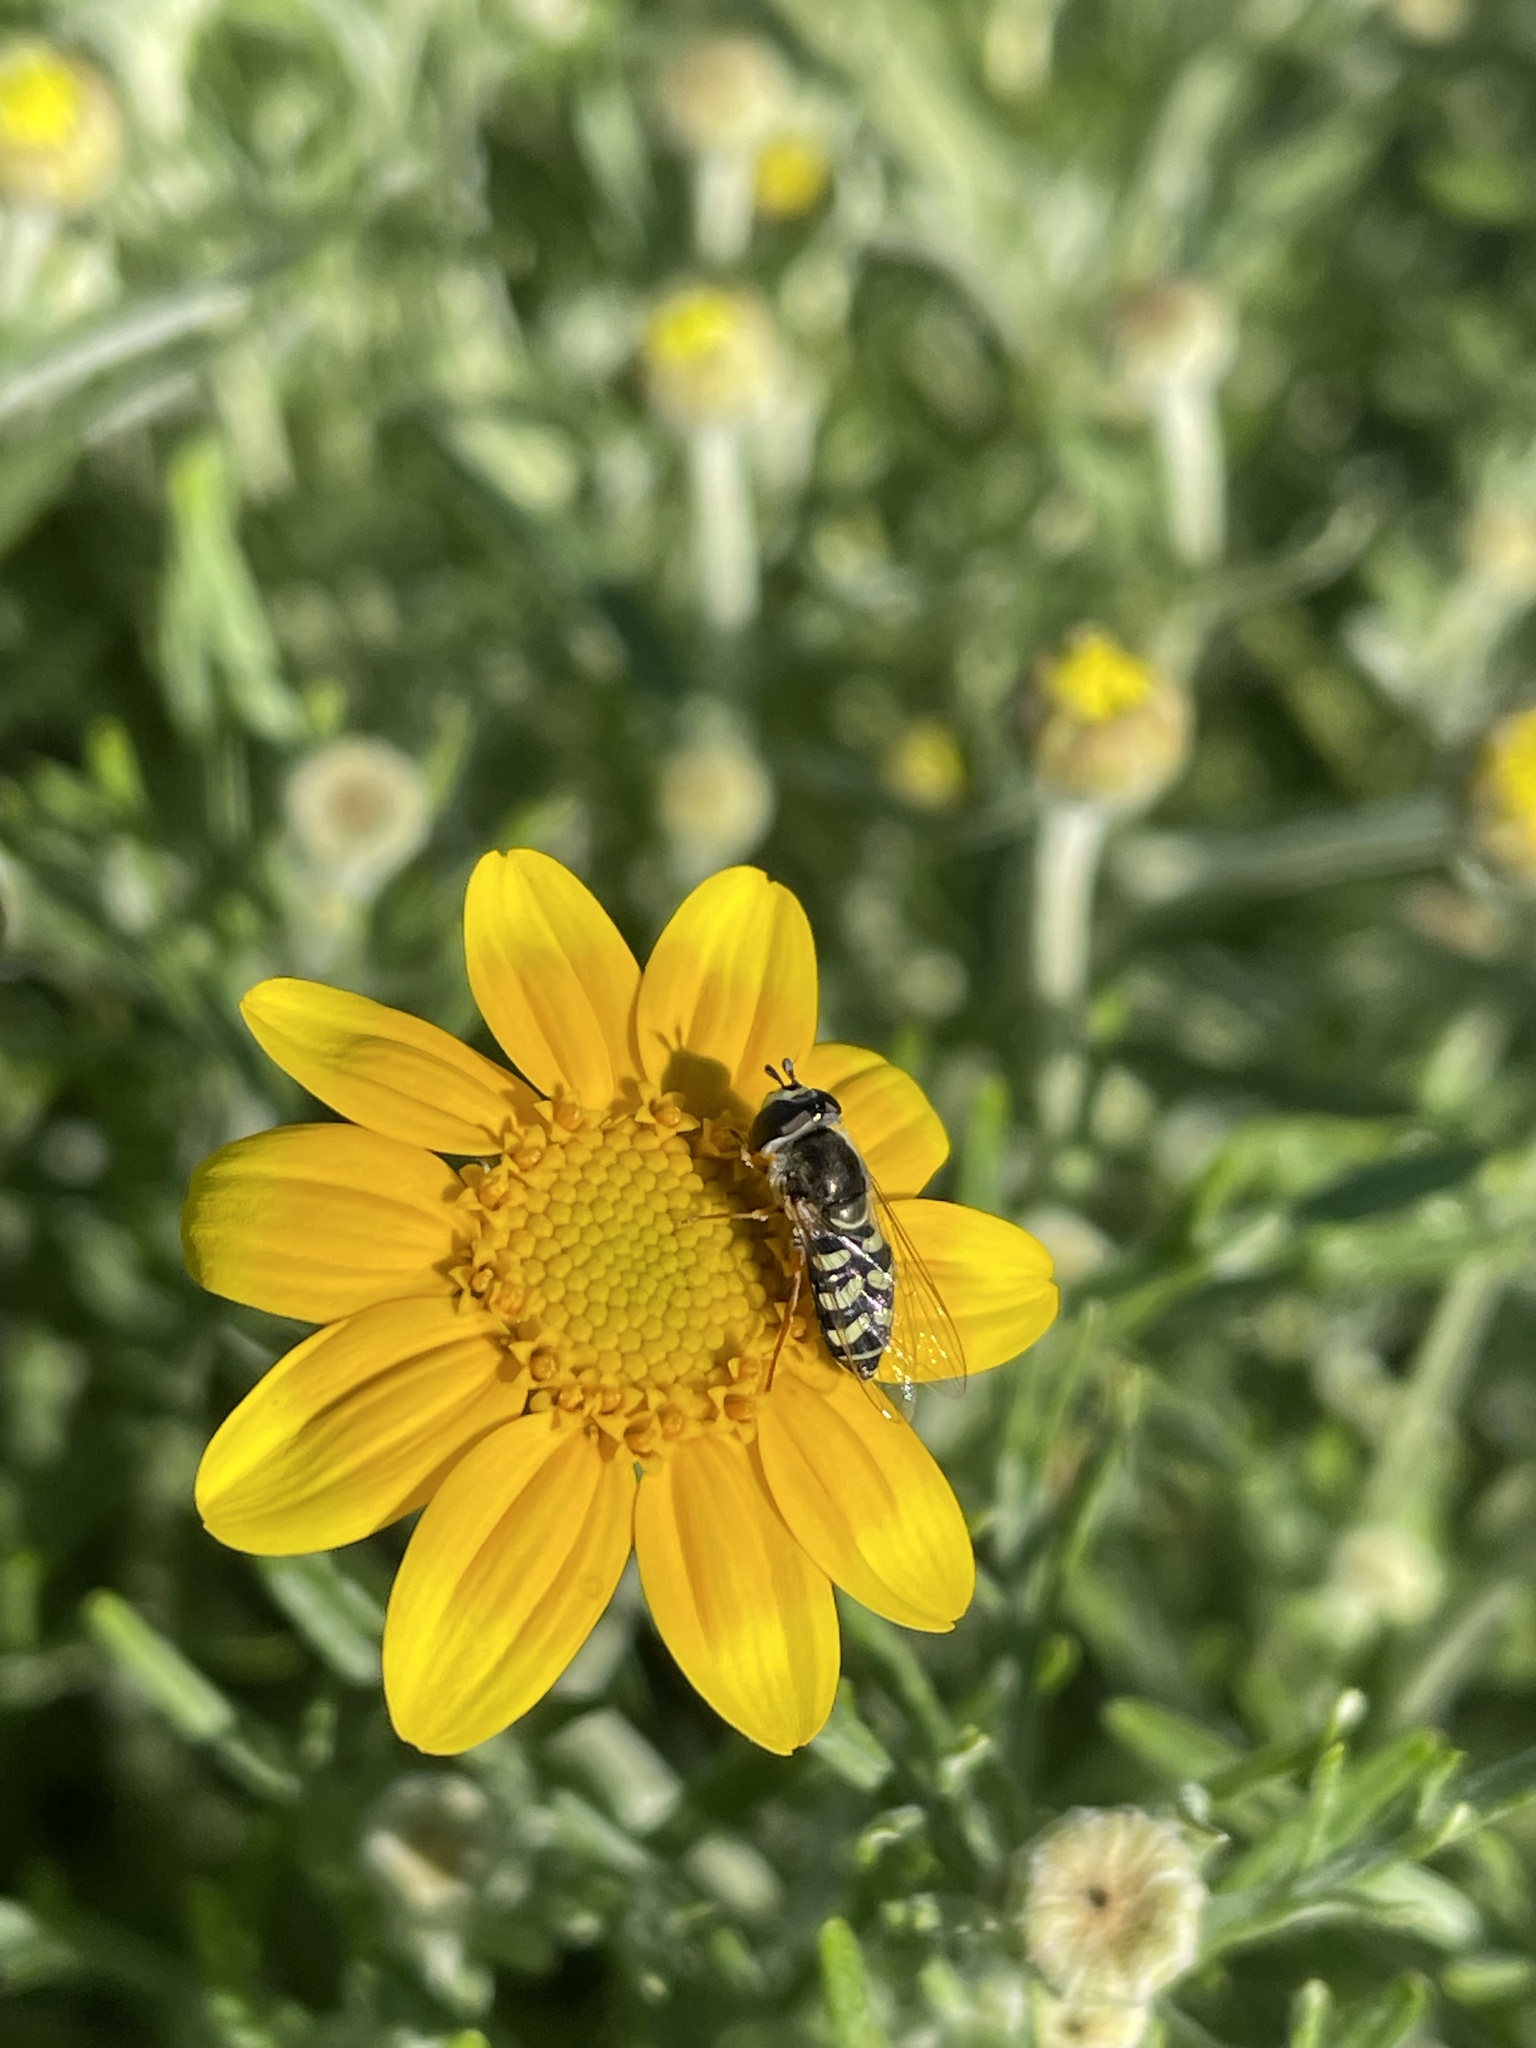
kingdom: Animalia
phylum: Arthropoda
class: Insecta
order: Diptera
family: Syrphidae
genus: Eupeodes
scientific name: Eupeodes volucris
